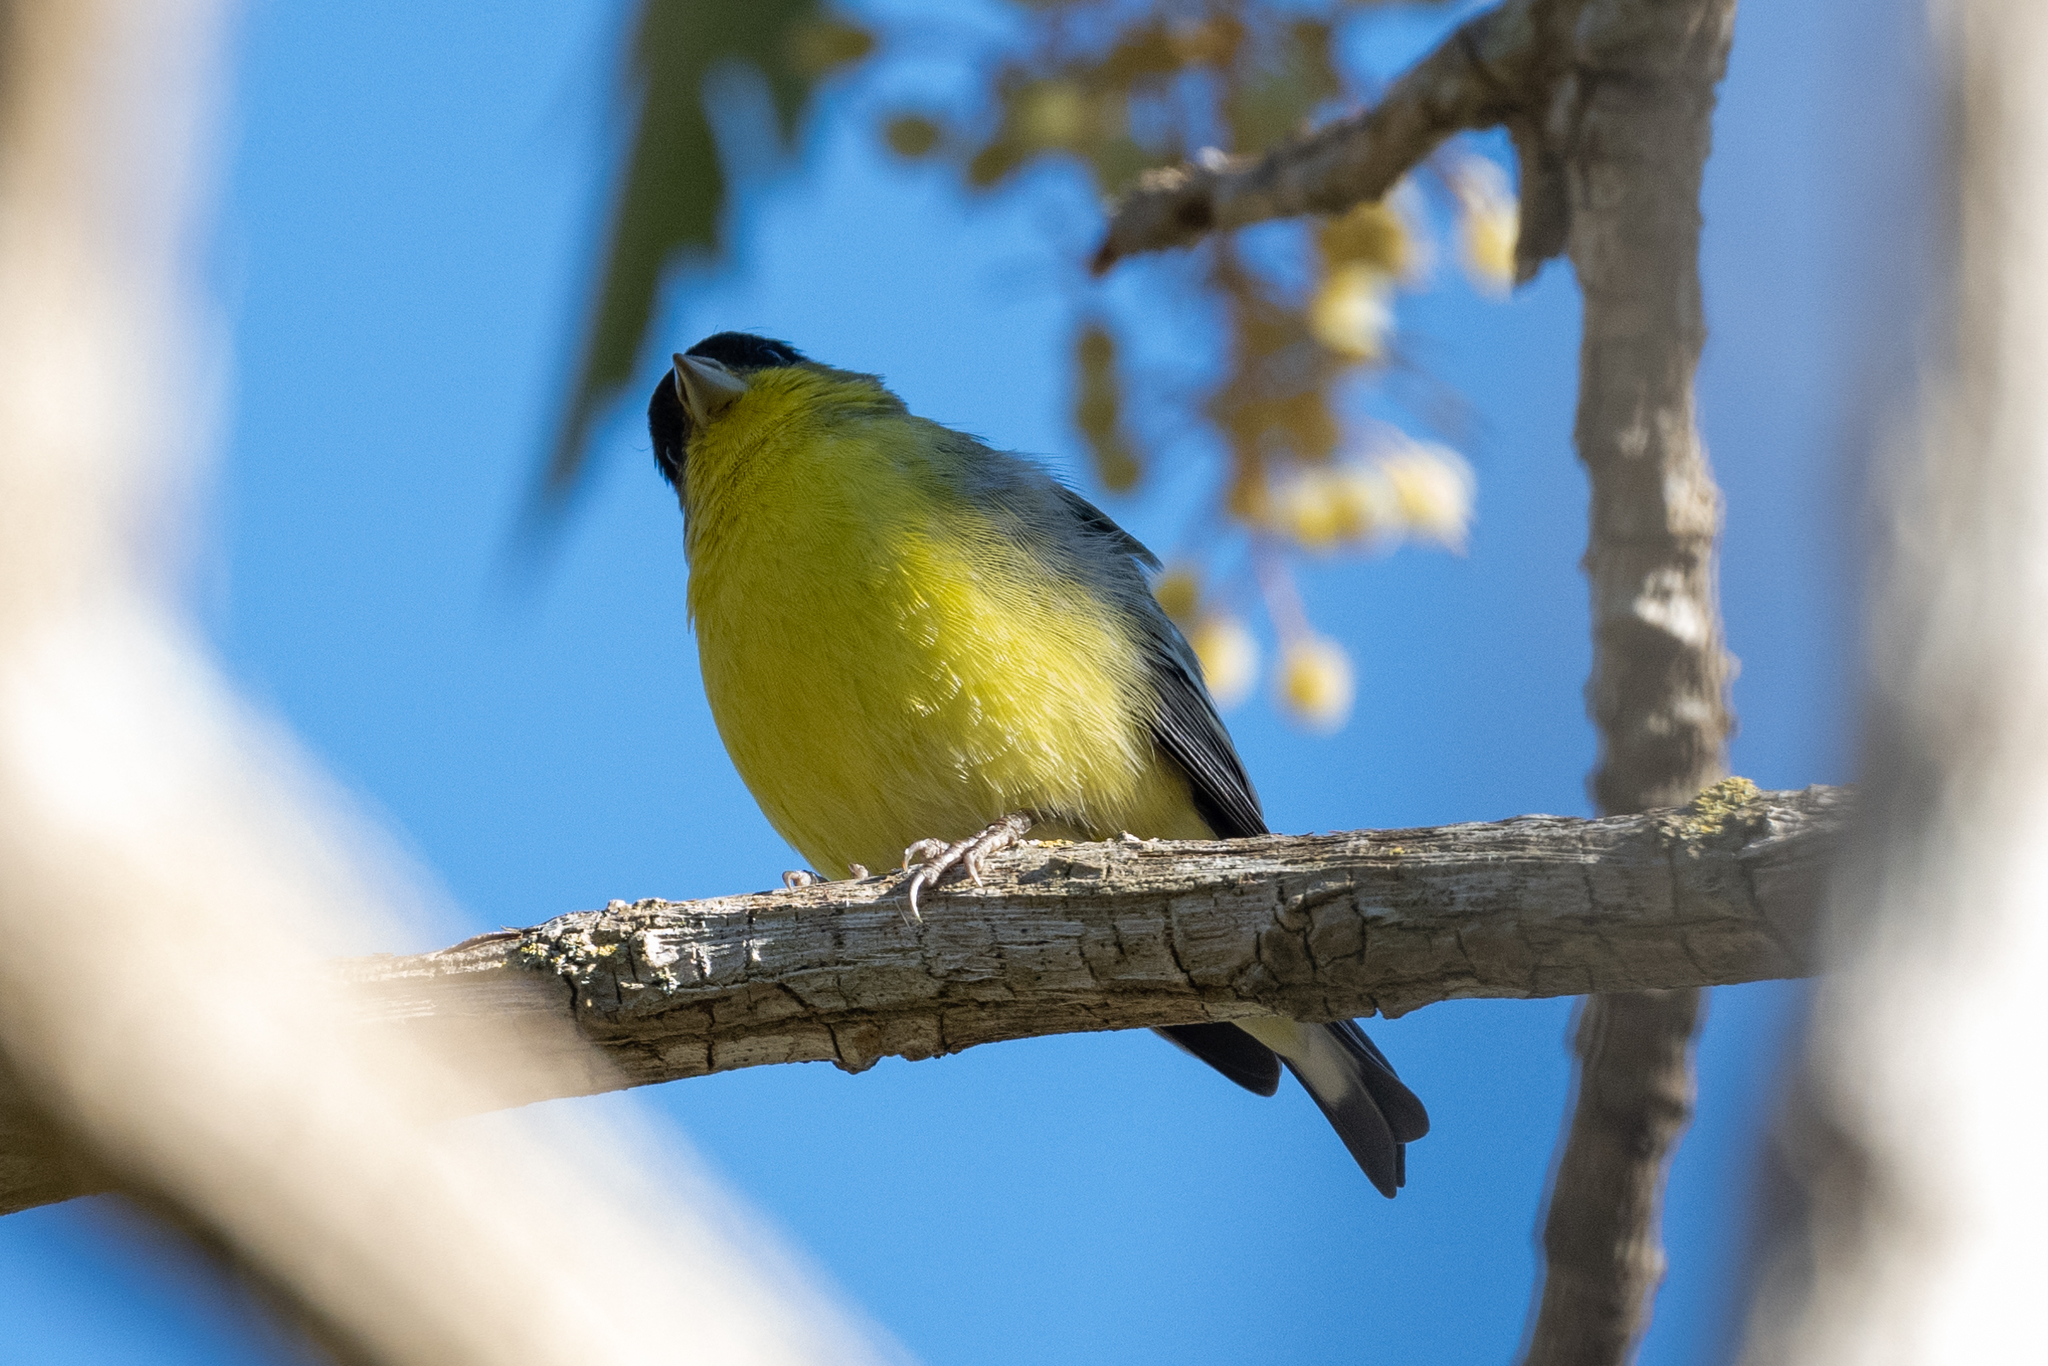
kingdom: Animalia
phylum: Chordata
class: Aves
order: Passeriformes
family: Fringillidae
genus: Spinus
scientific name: Spinus psaltria
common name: Lesser goldfinch
